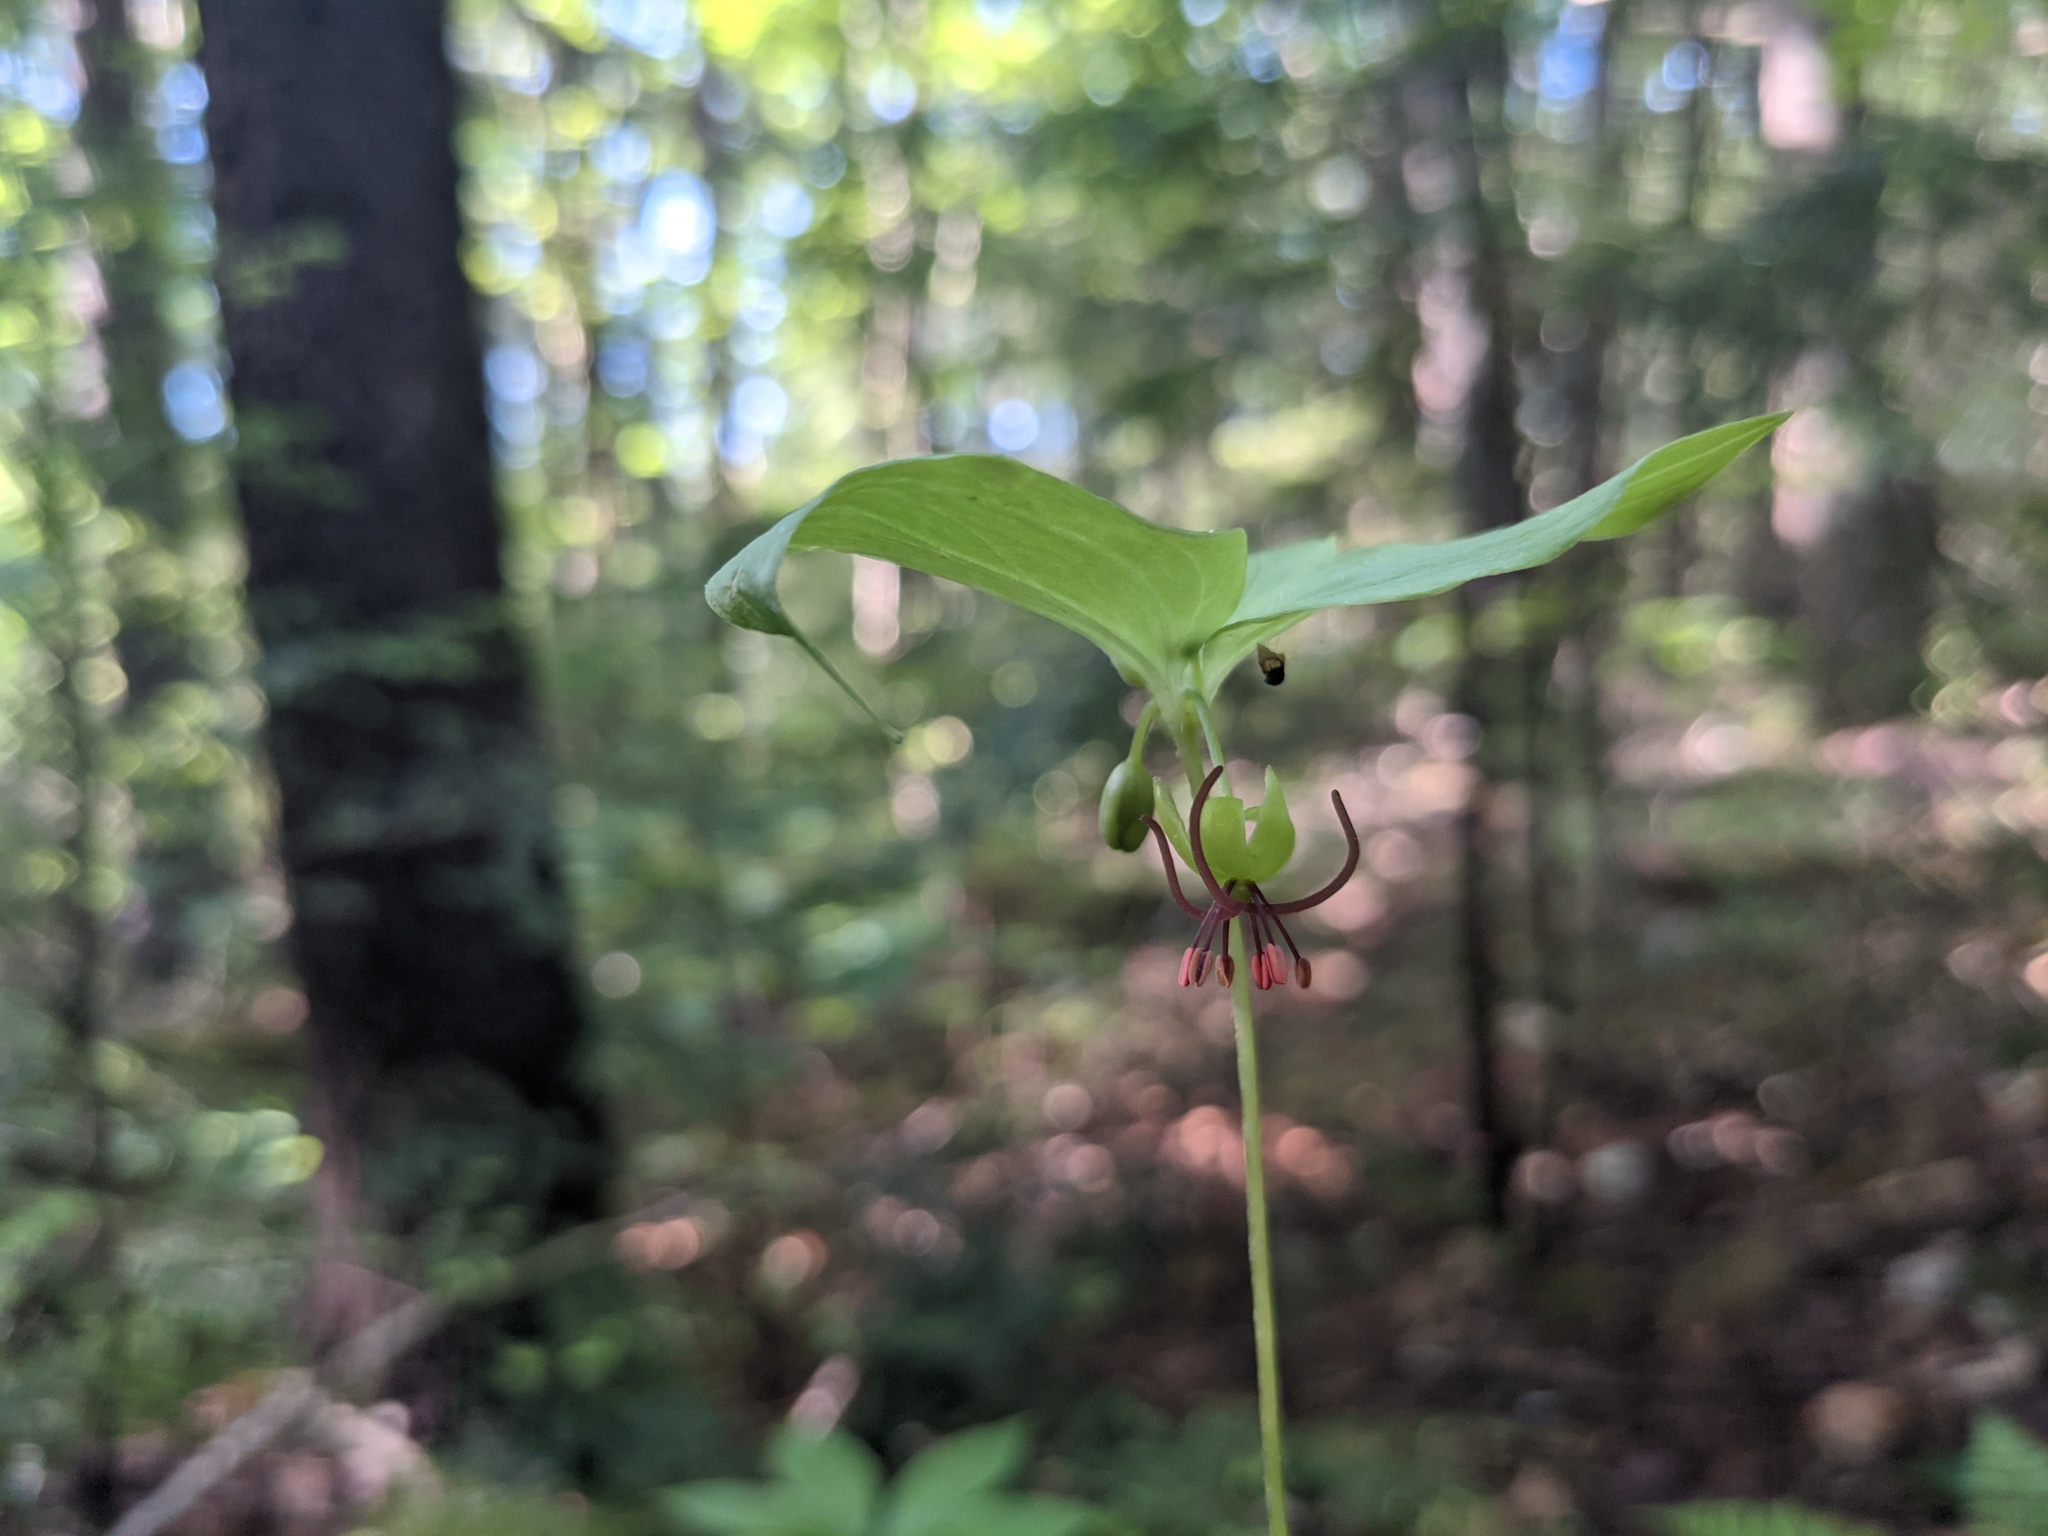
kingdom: Plantae
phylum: Tracheophyta
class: Liliopsida
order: Liliales
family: Liliaceae
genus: Medeola
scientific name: Medeola virginiana
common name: Indian cucumber-root
